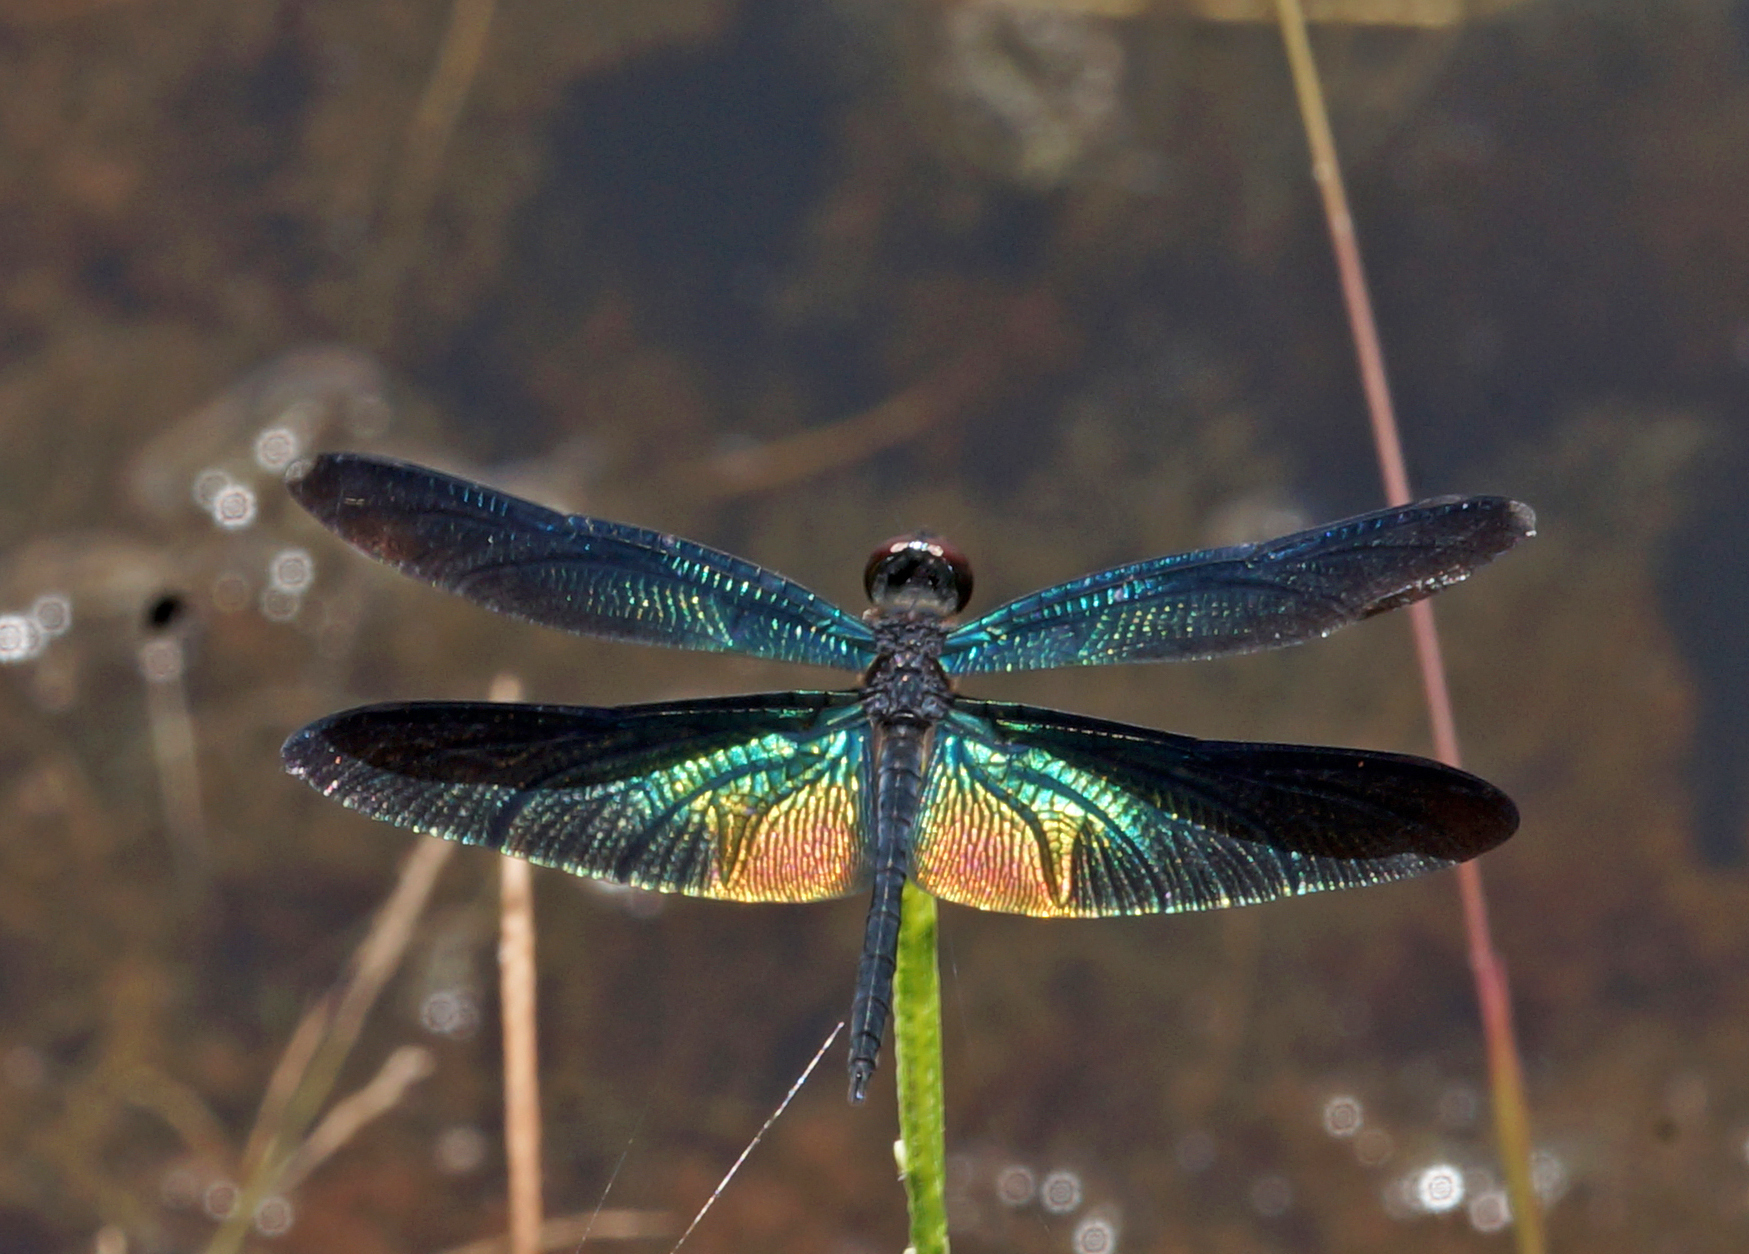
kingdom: Animalia
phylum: Arthropoda
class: Insecta
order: Odonata
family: Libellulidae
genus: Rhyothemis
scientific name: Rhyothemis plutonia
